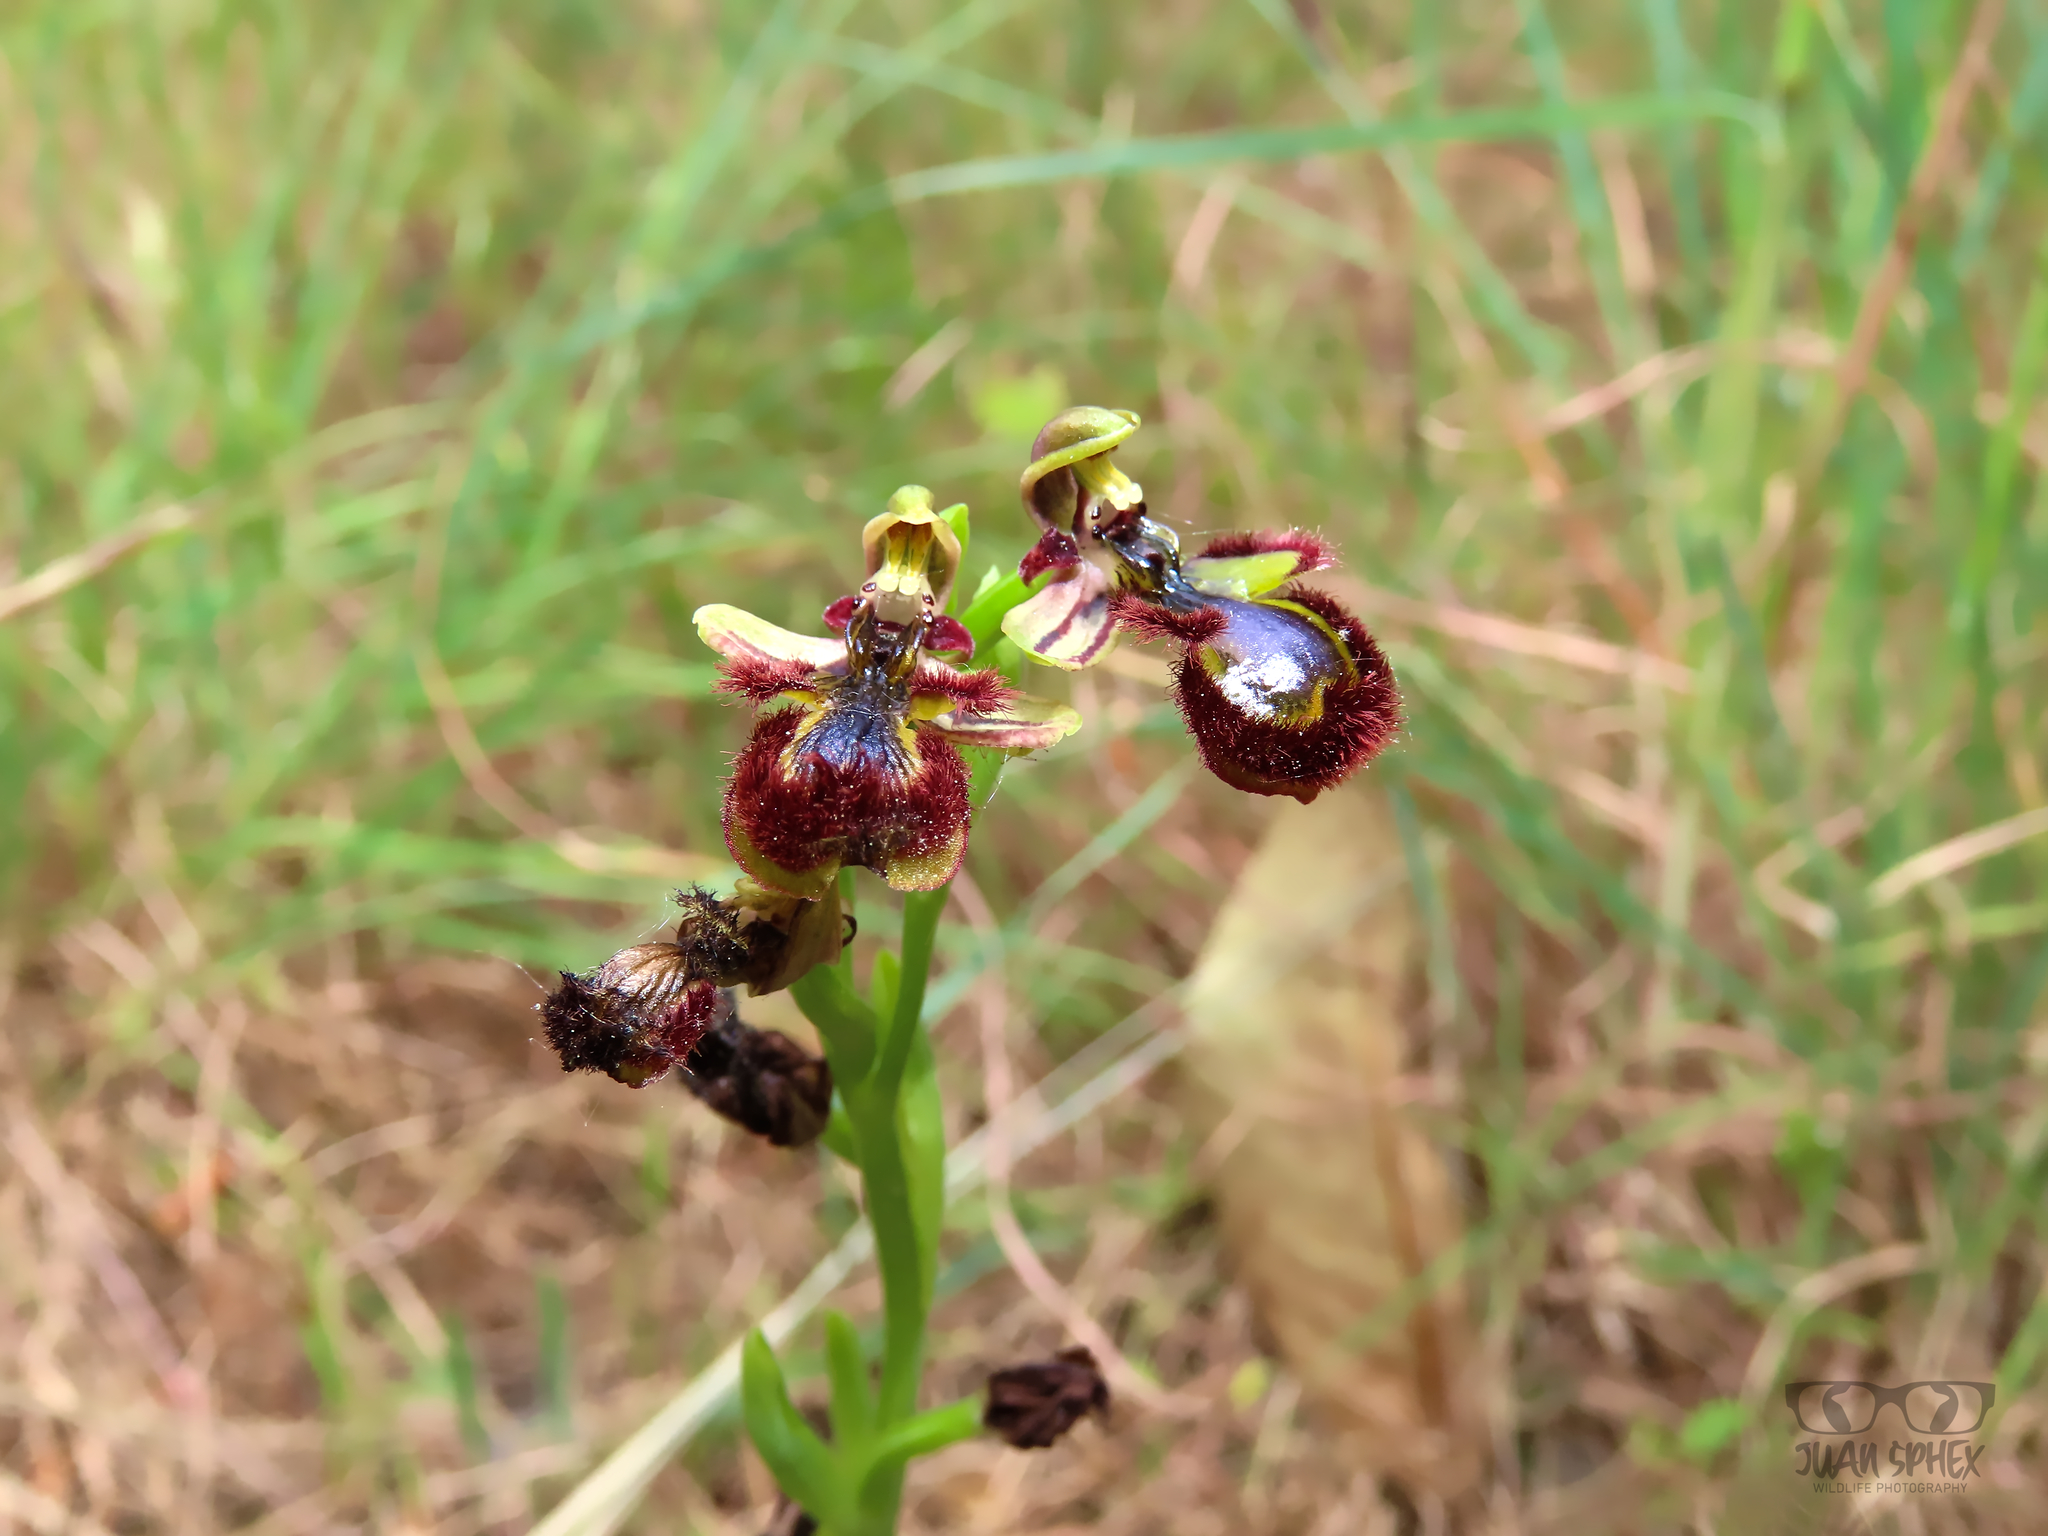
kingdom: Plantae
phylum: Tracheophyta
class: Liliopsida
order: Asparagales
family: Orchidaceae
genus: Ophrys
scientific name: Ophrys speculum
